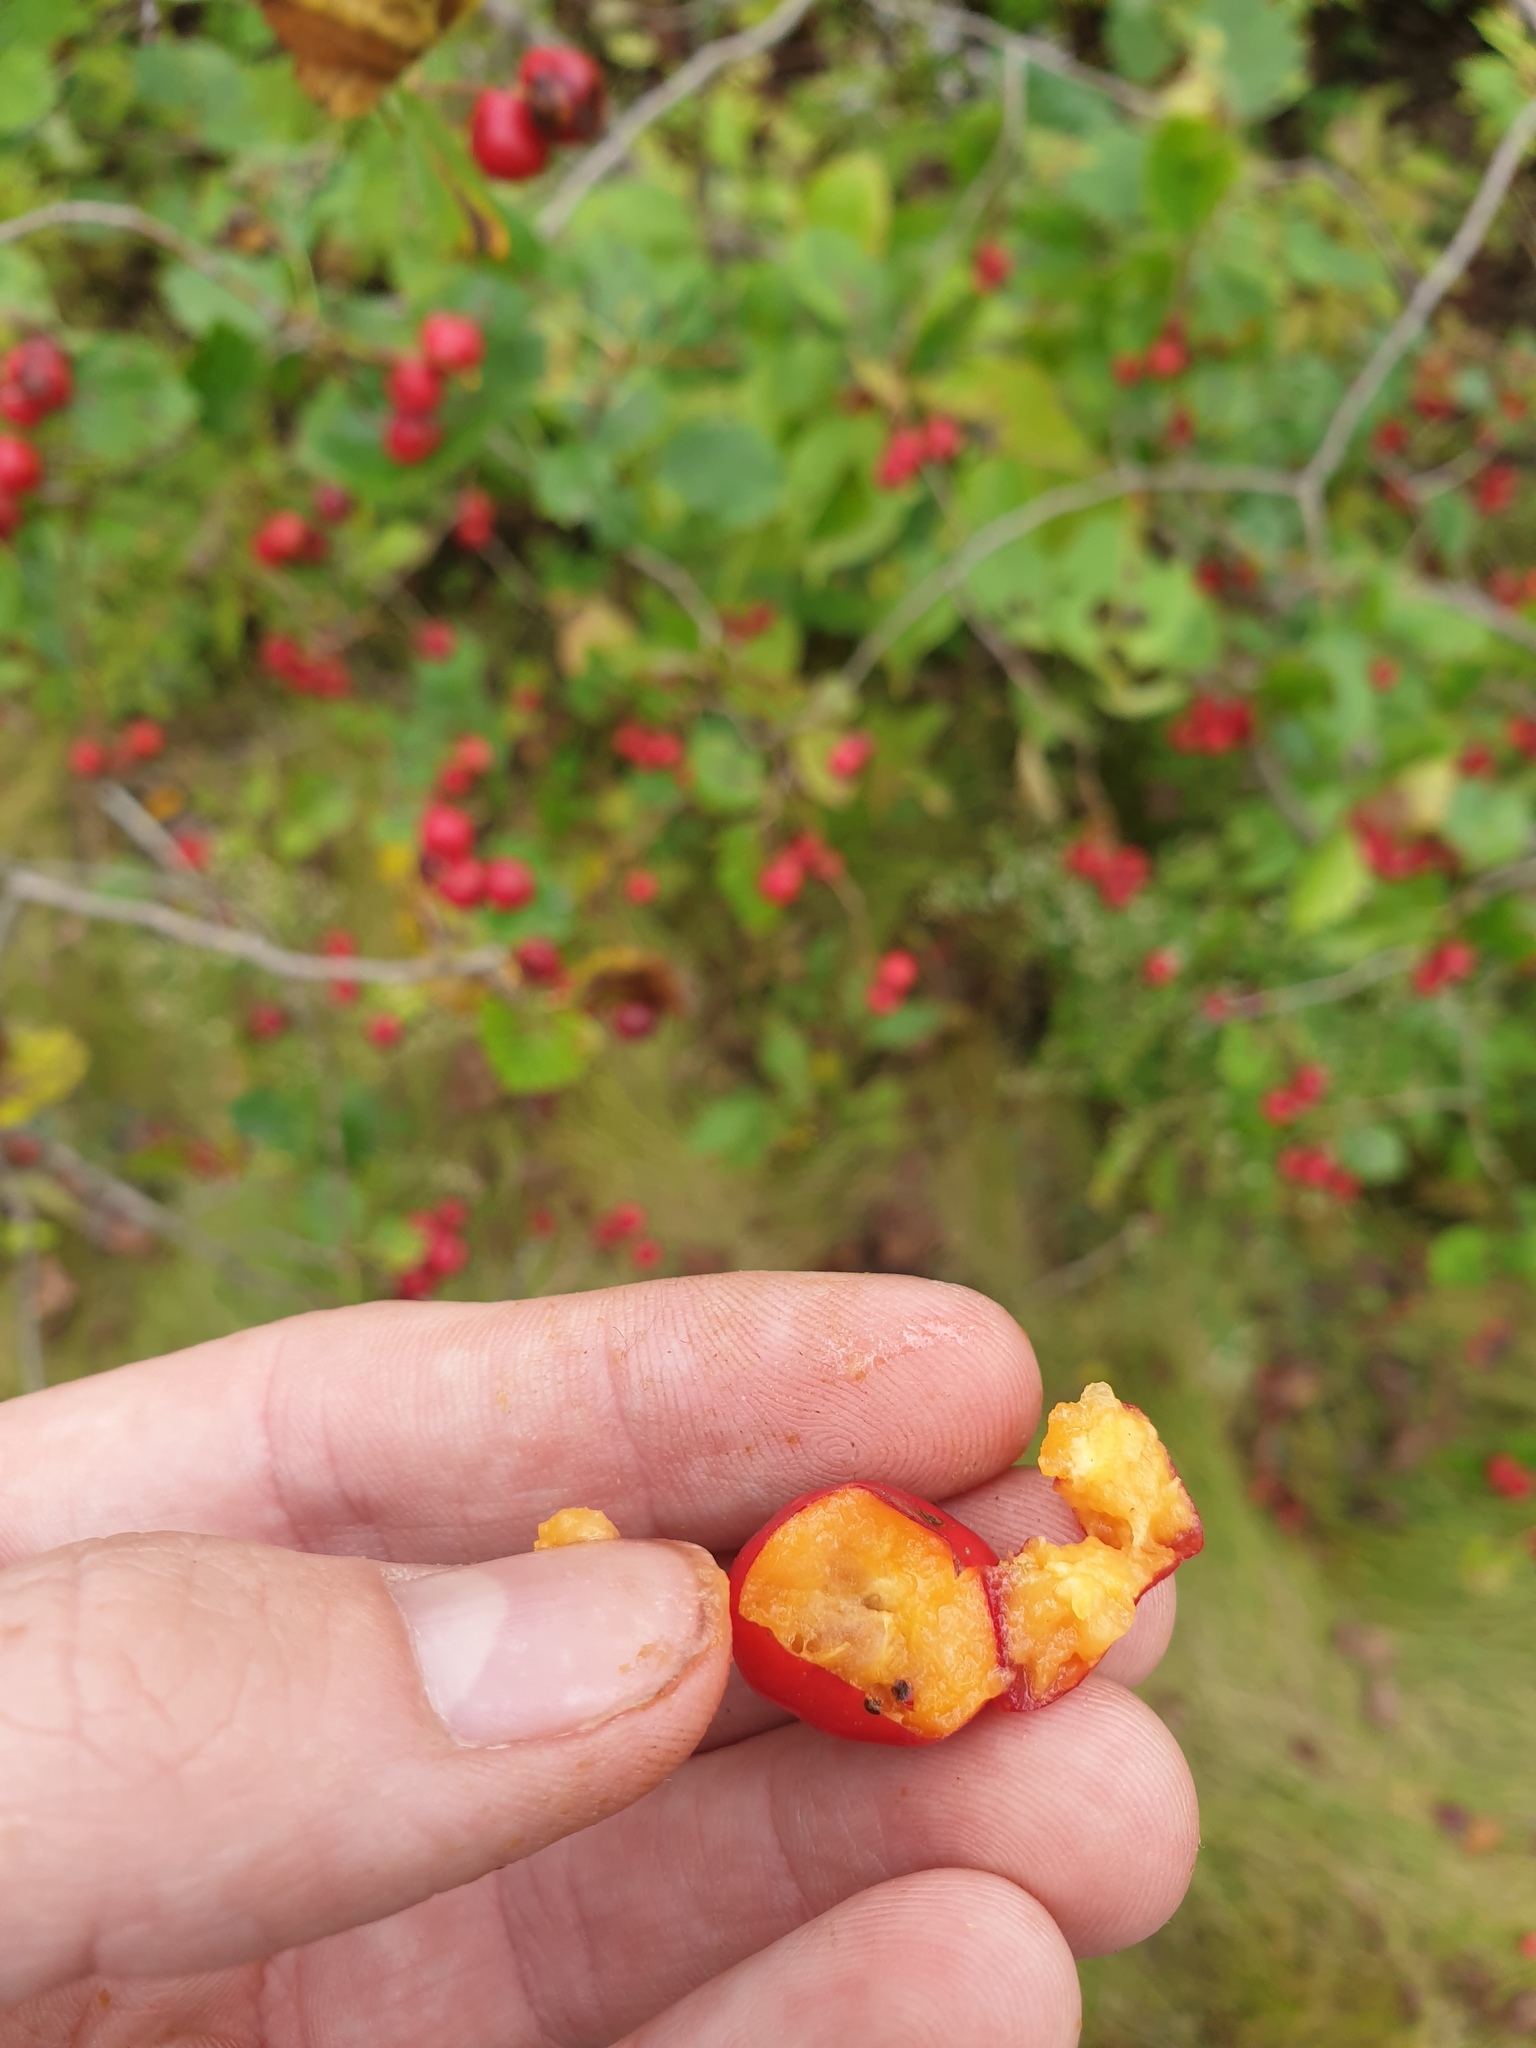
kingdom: Plantae
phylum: Tracheophyta
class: Magnoliopsida
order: Rosales
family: Rosaceae
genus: Crataegus
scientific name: Crataegus chrysocarpa
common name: Fire-berry hawthorn
